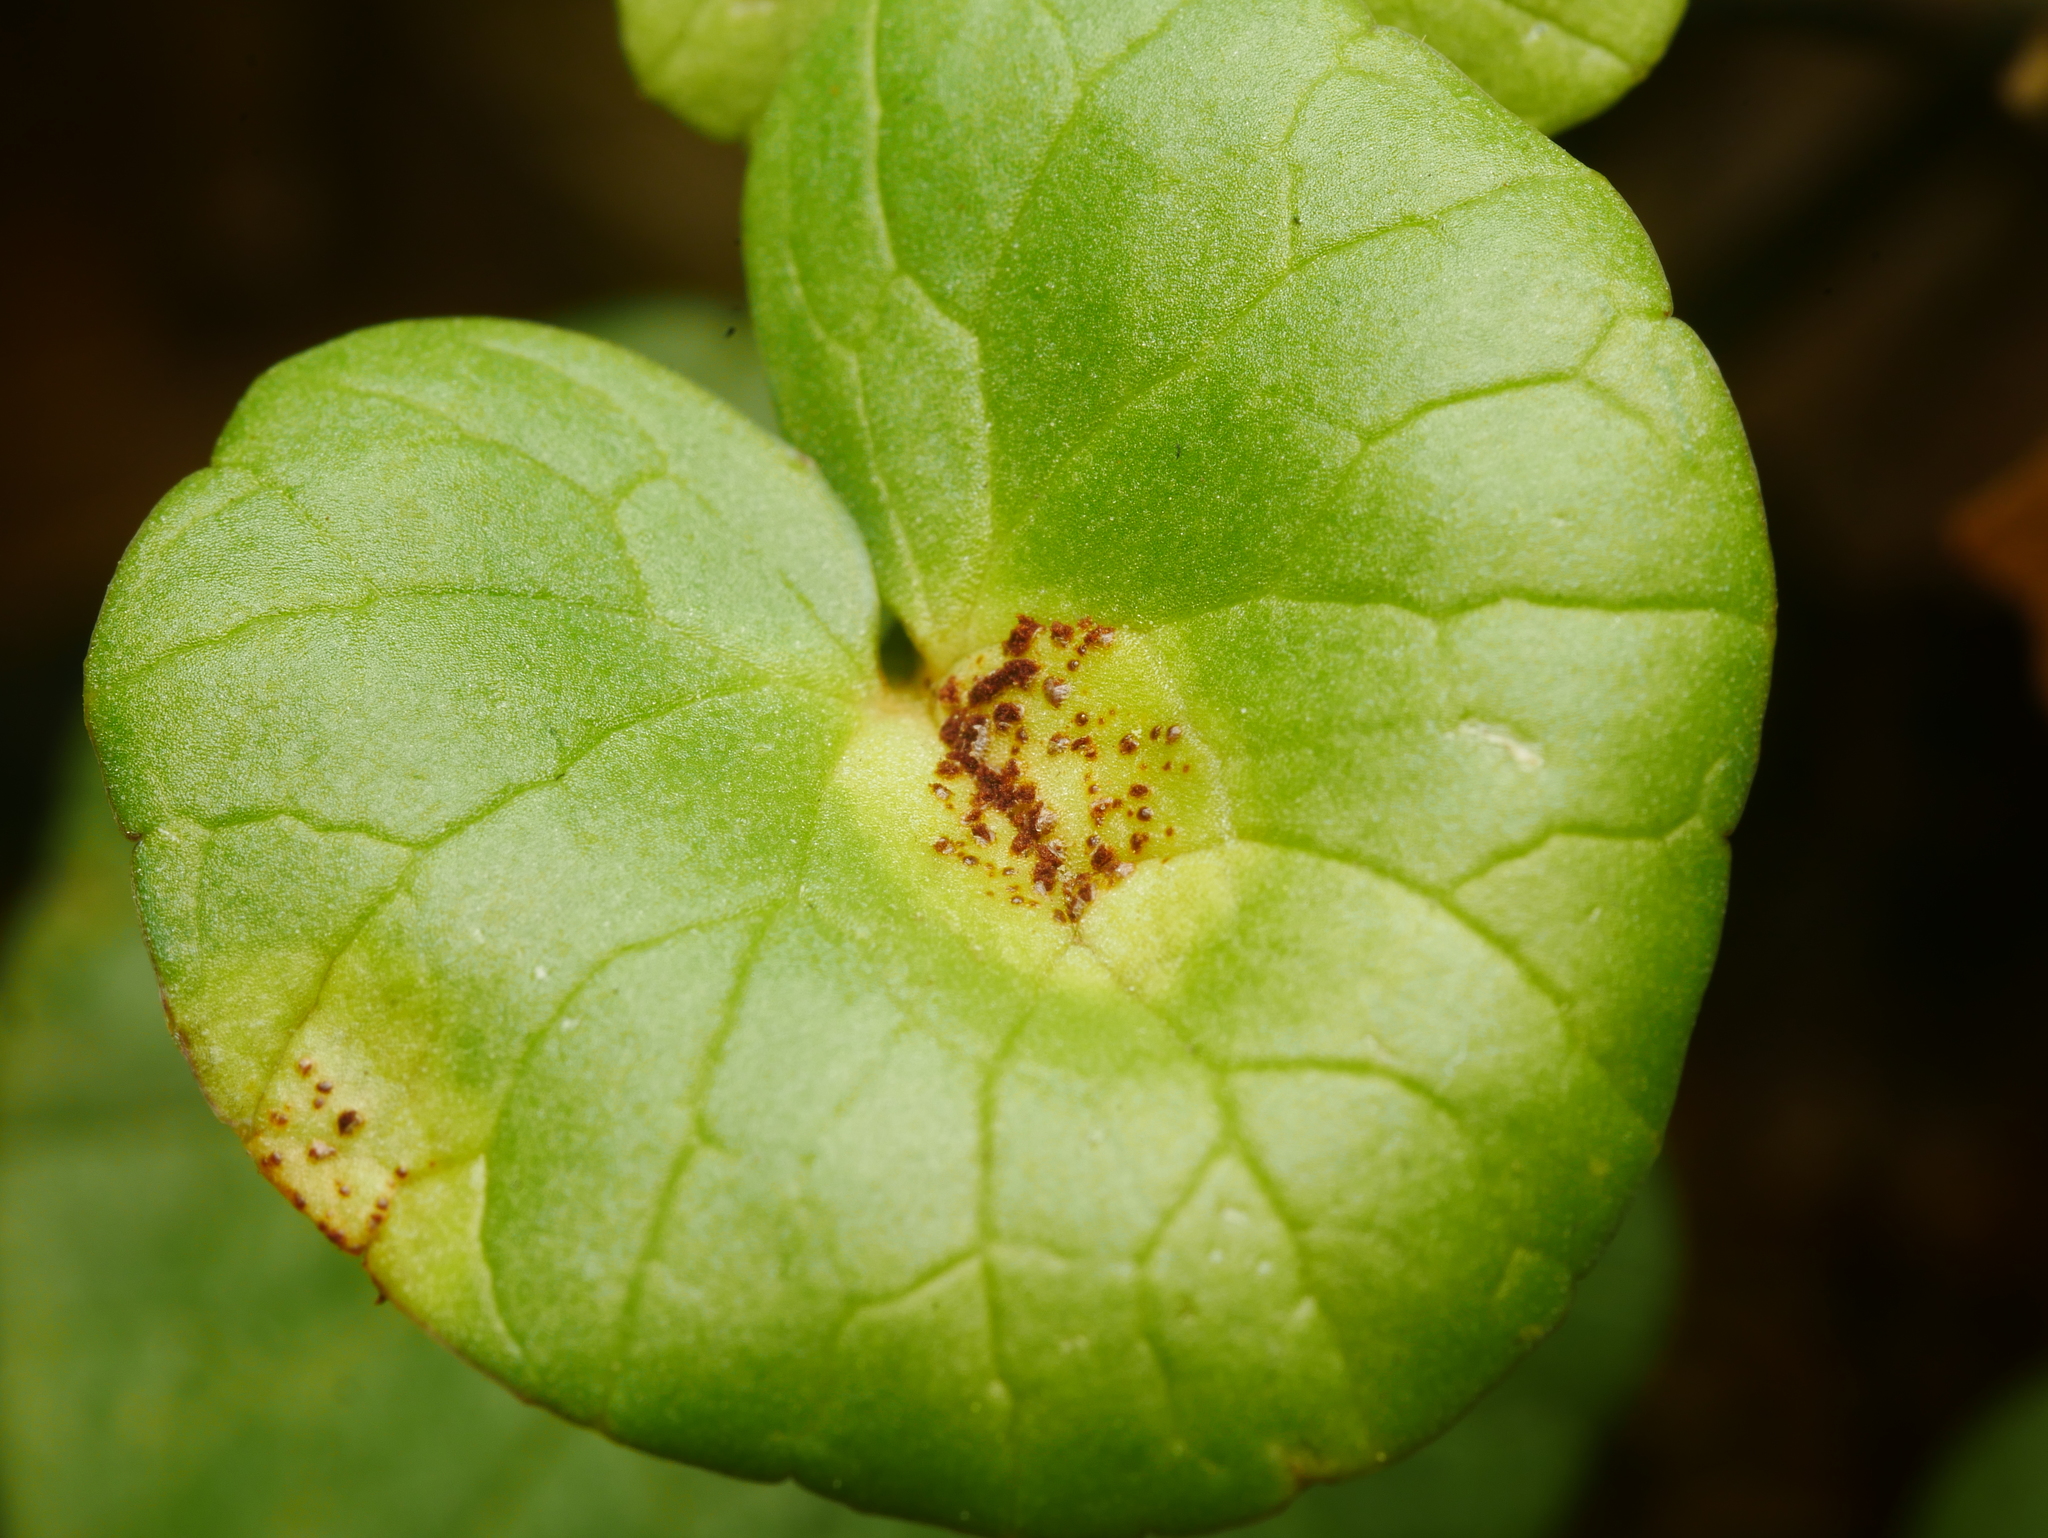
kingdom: Fungi
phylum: Basidiomycota
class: Pucciniomycetes
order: Pucciniales
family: Pucciniaceae
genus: Uromyces
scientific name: Uromyces ficariae
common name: Bitter chocolate rust
